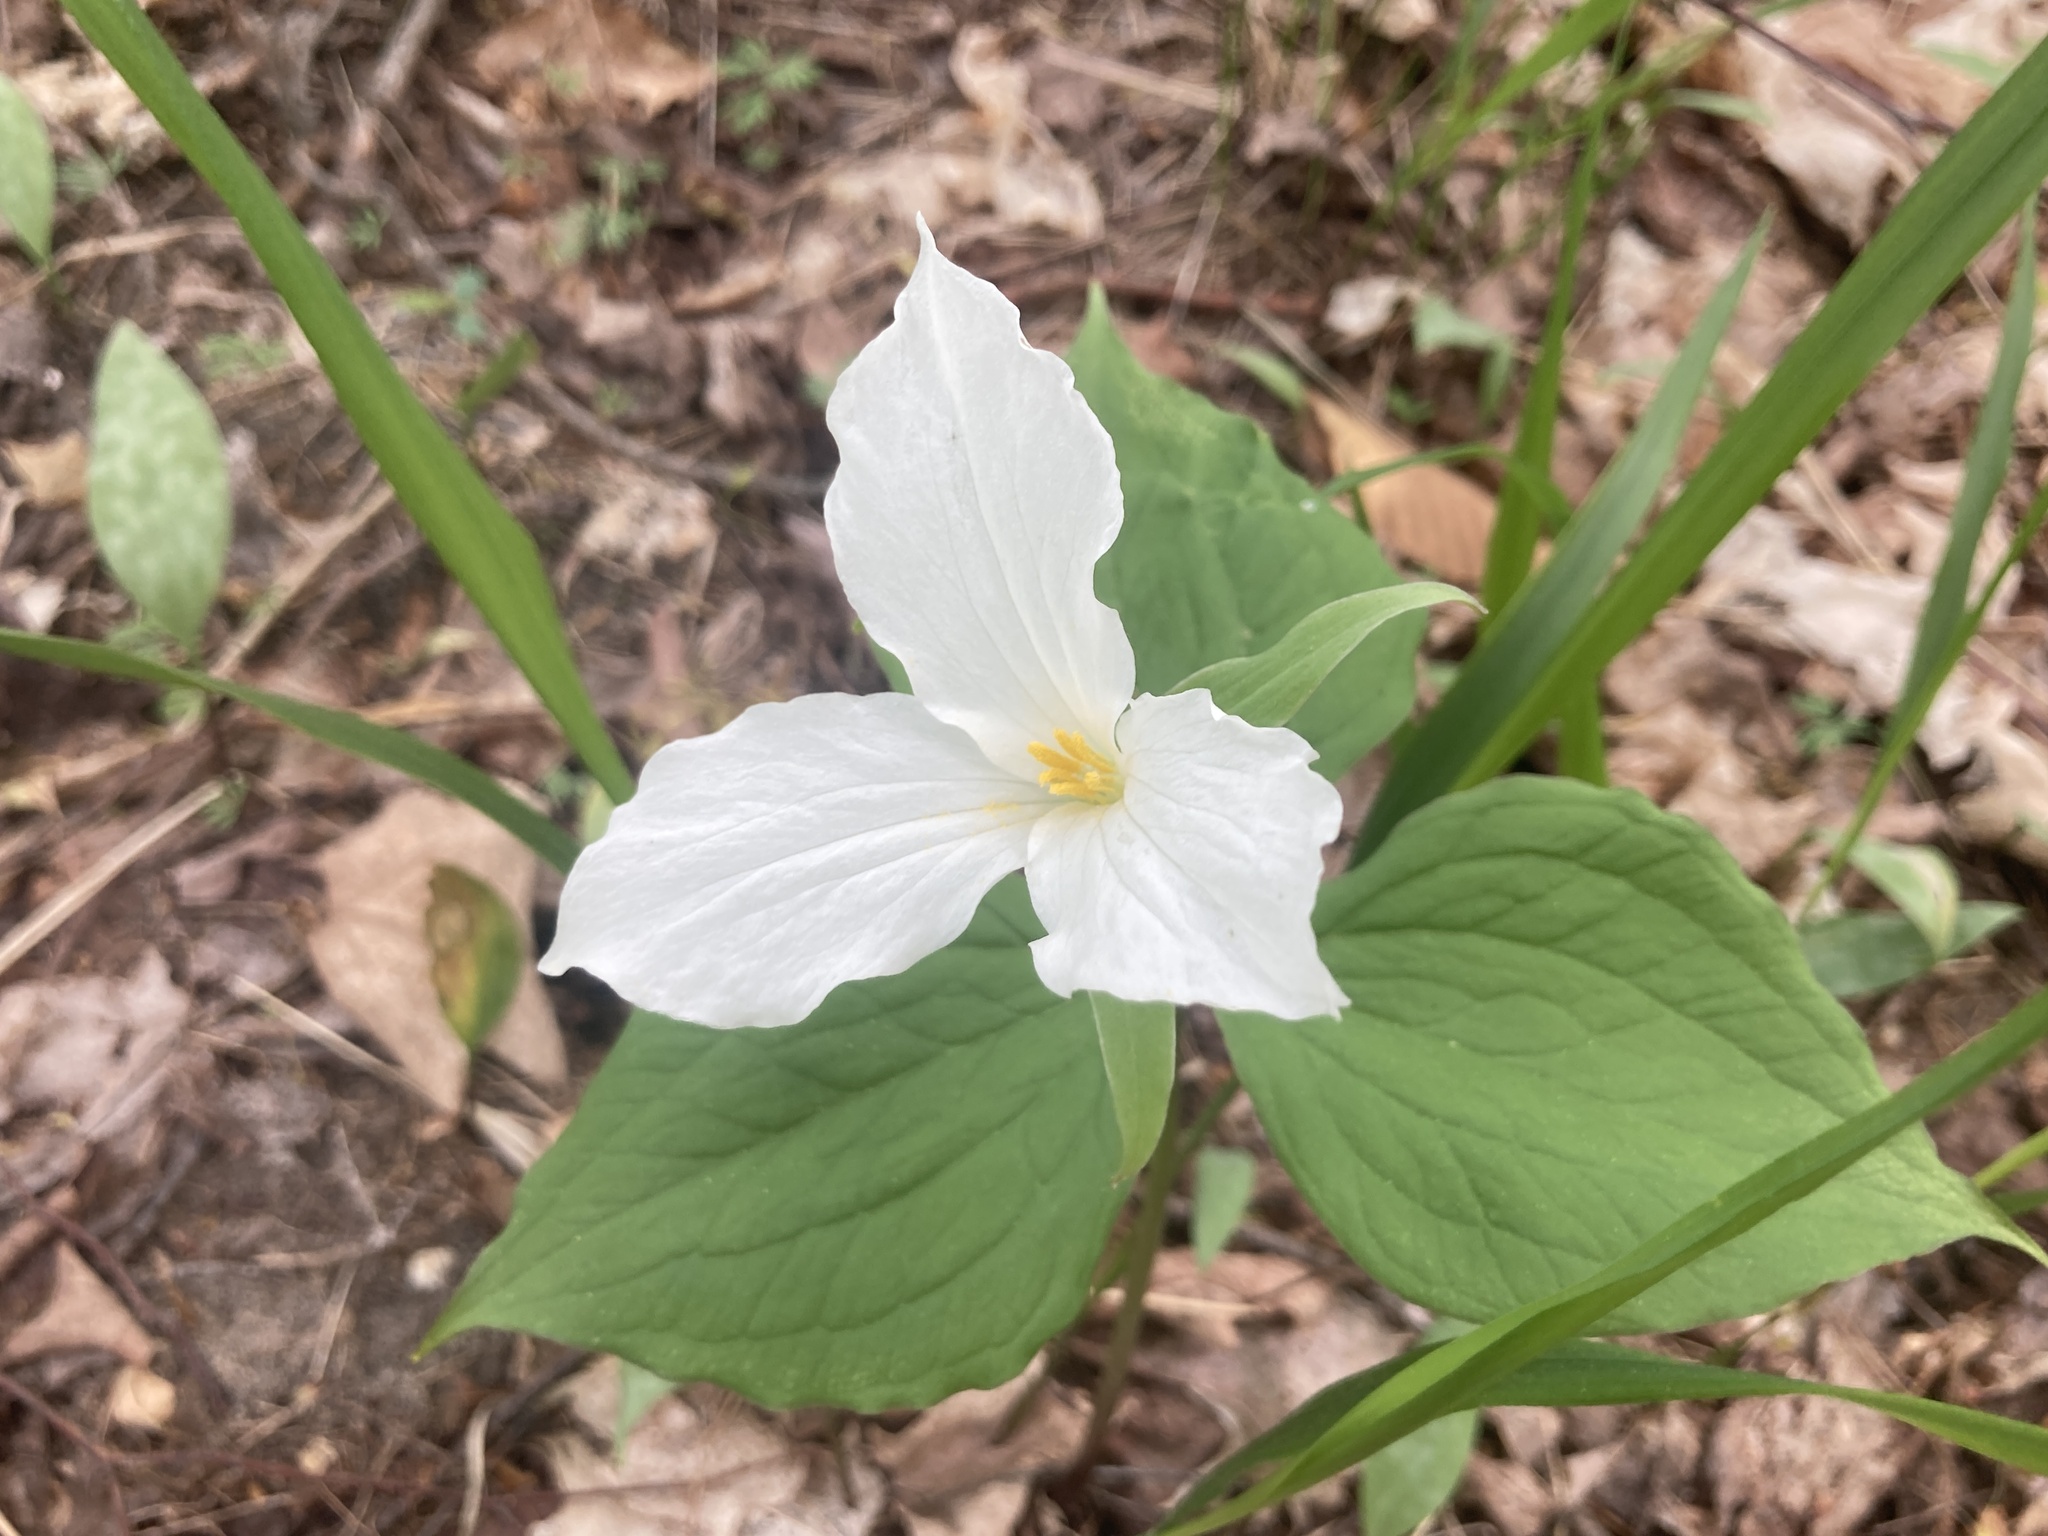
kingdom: Plantae
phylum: Tracheophyta
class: Liliopsida
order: Liliales
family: Melanthiaceae
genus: Trillium
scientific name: Trillium grandiflorum
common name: Great white trillium
